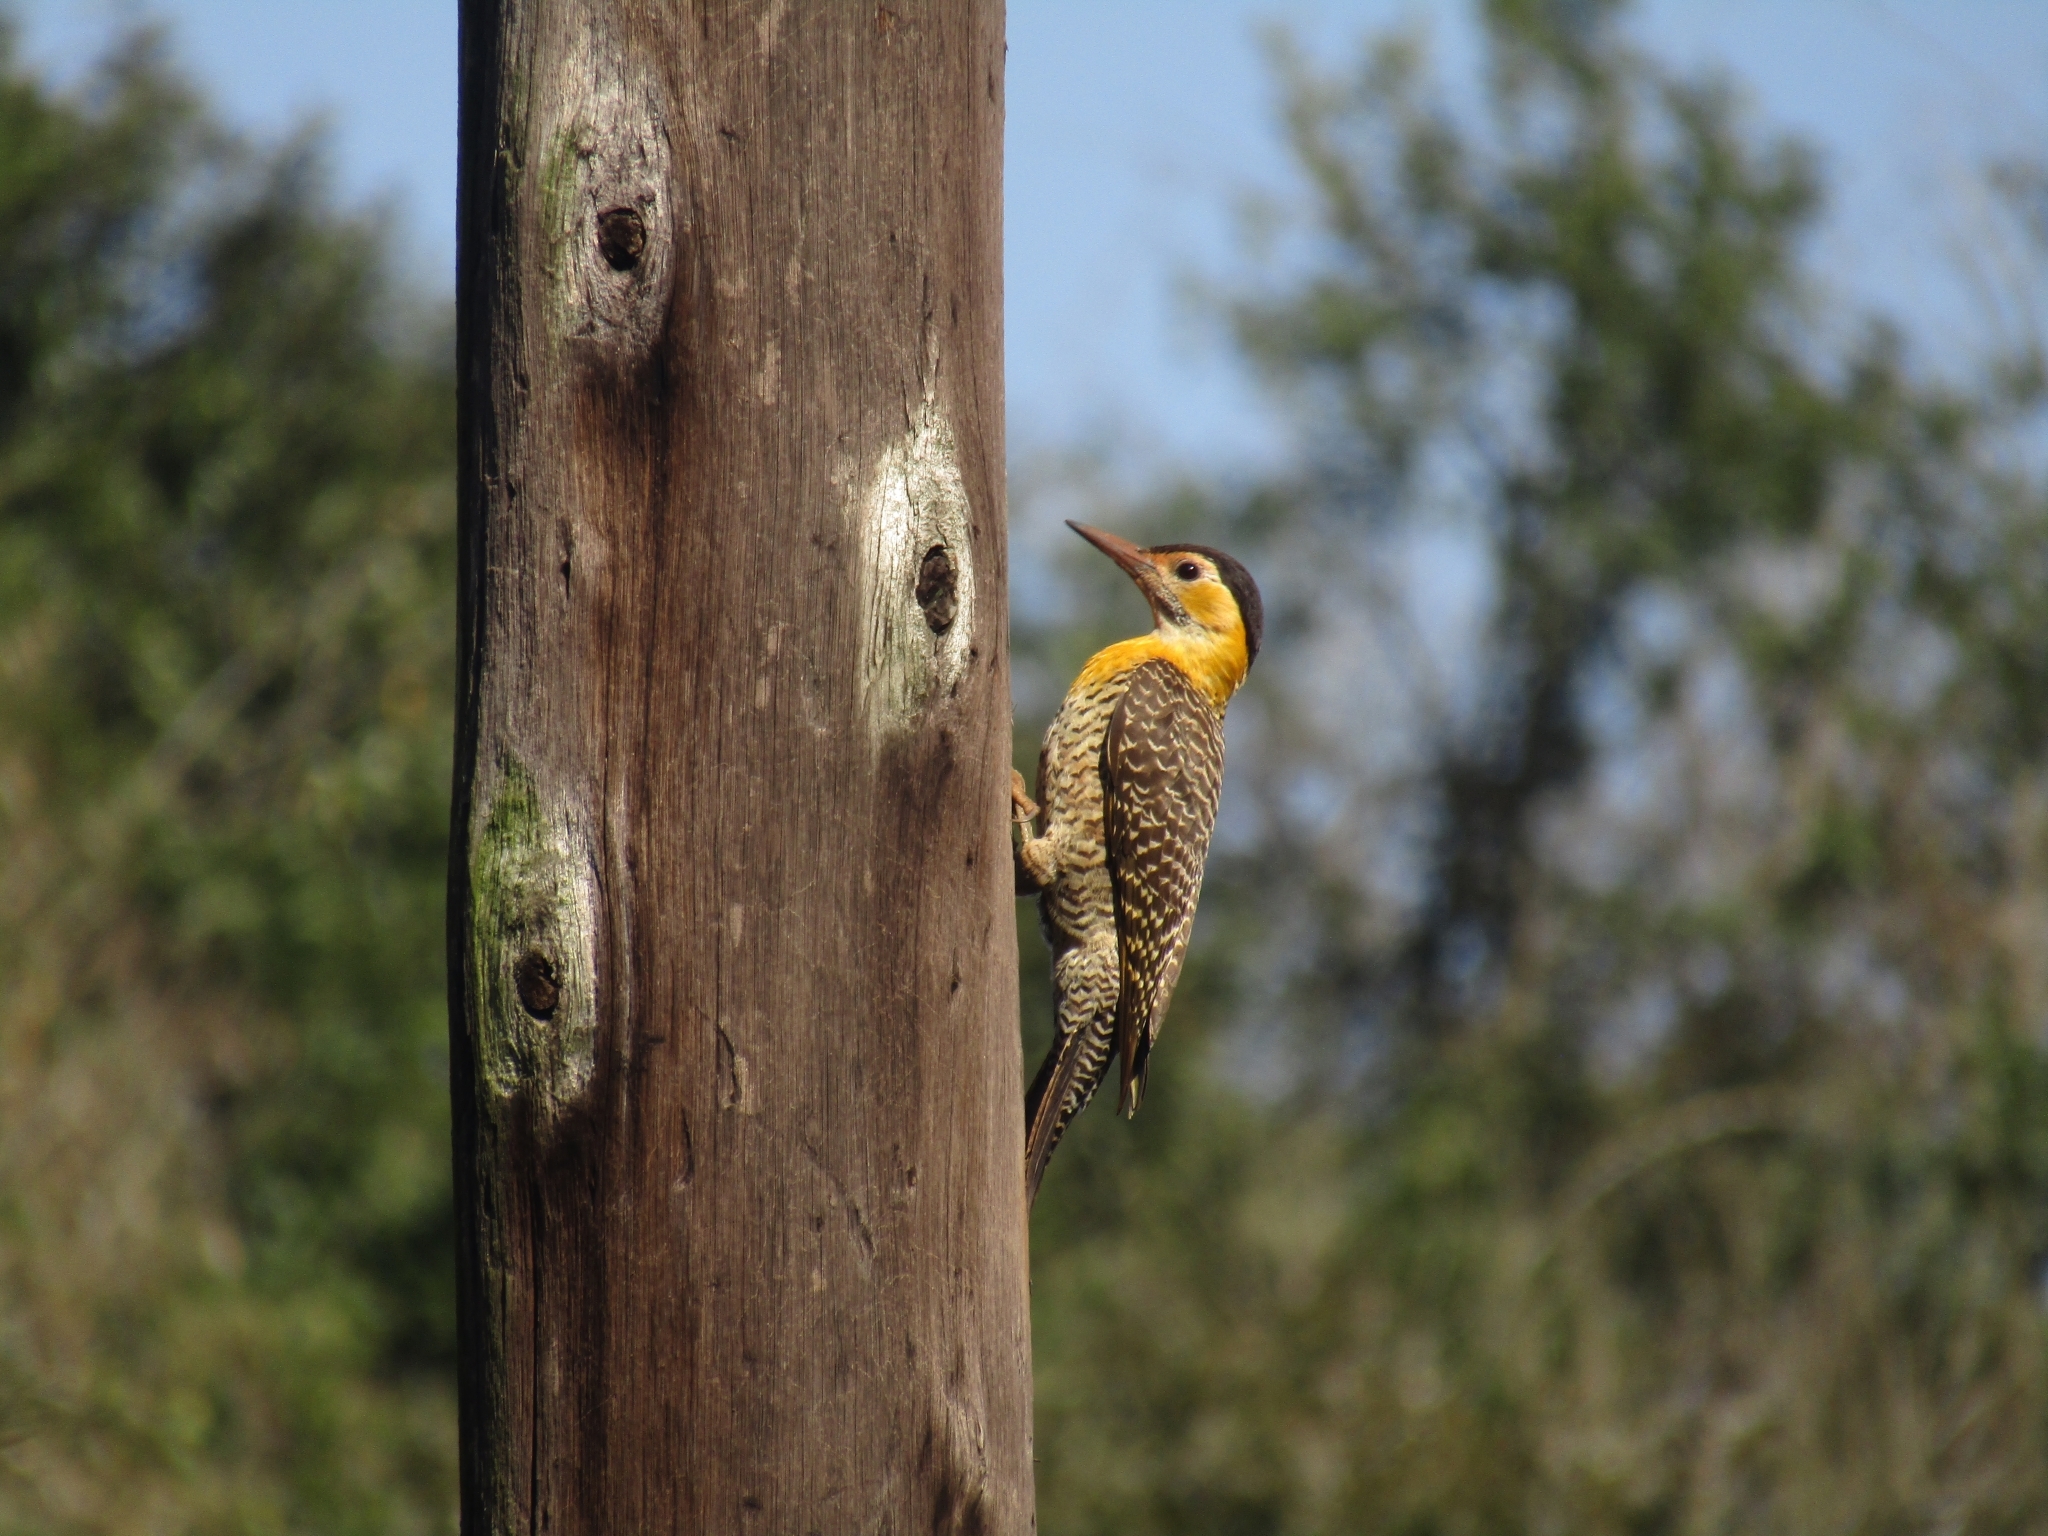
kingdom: Animalia
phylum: Chordata
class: Aves
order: Piciformes
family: Picidae
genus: Colaptes
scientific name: Colaptes campestris
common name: Campo flicker
